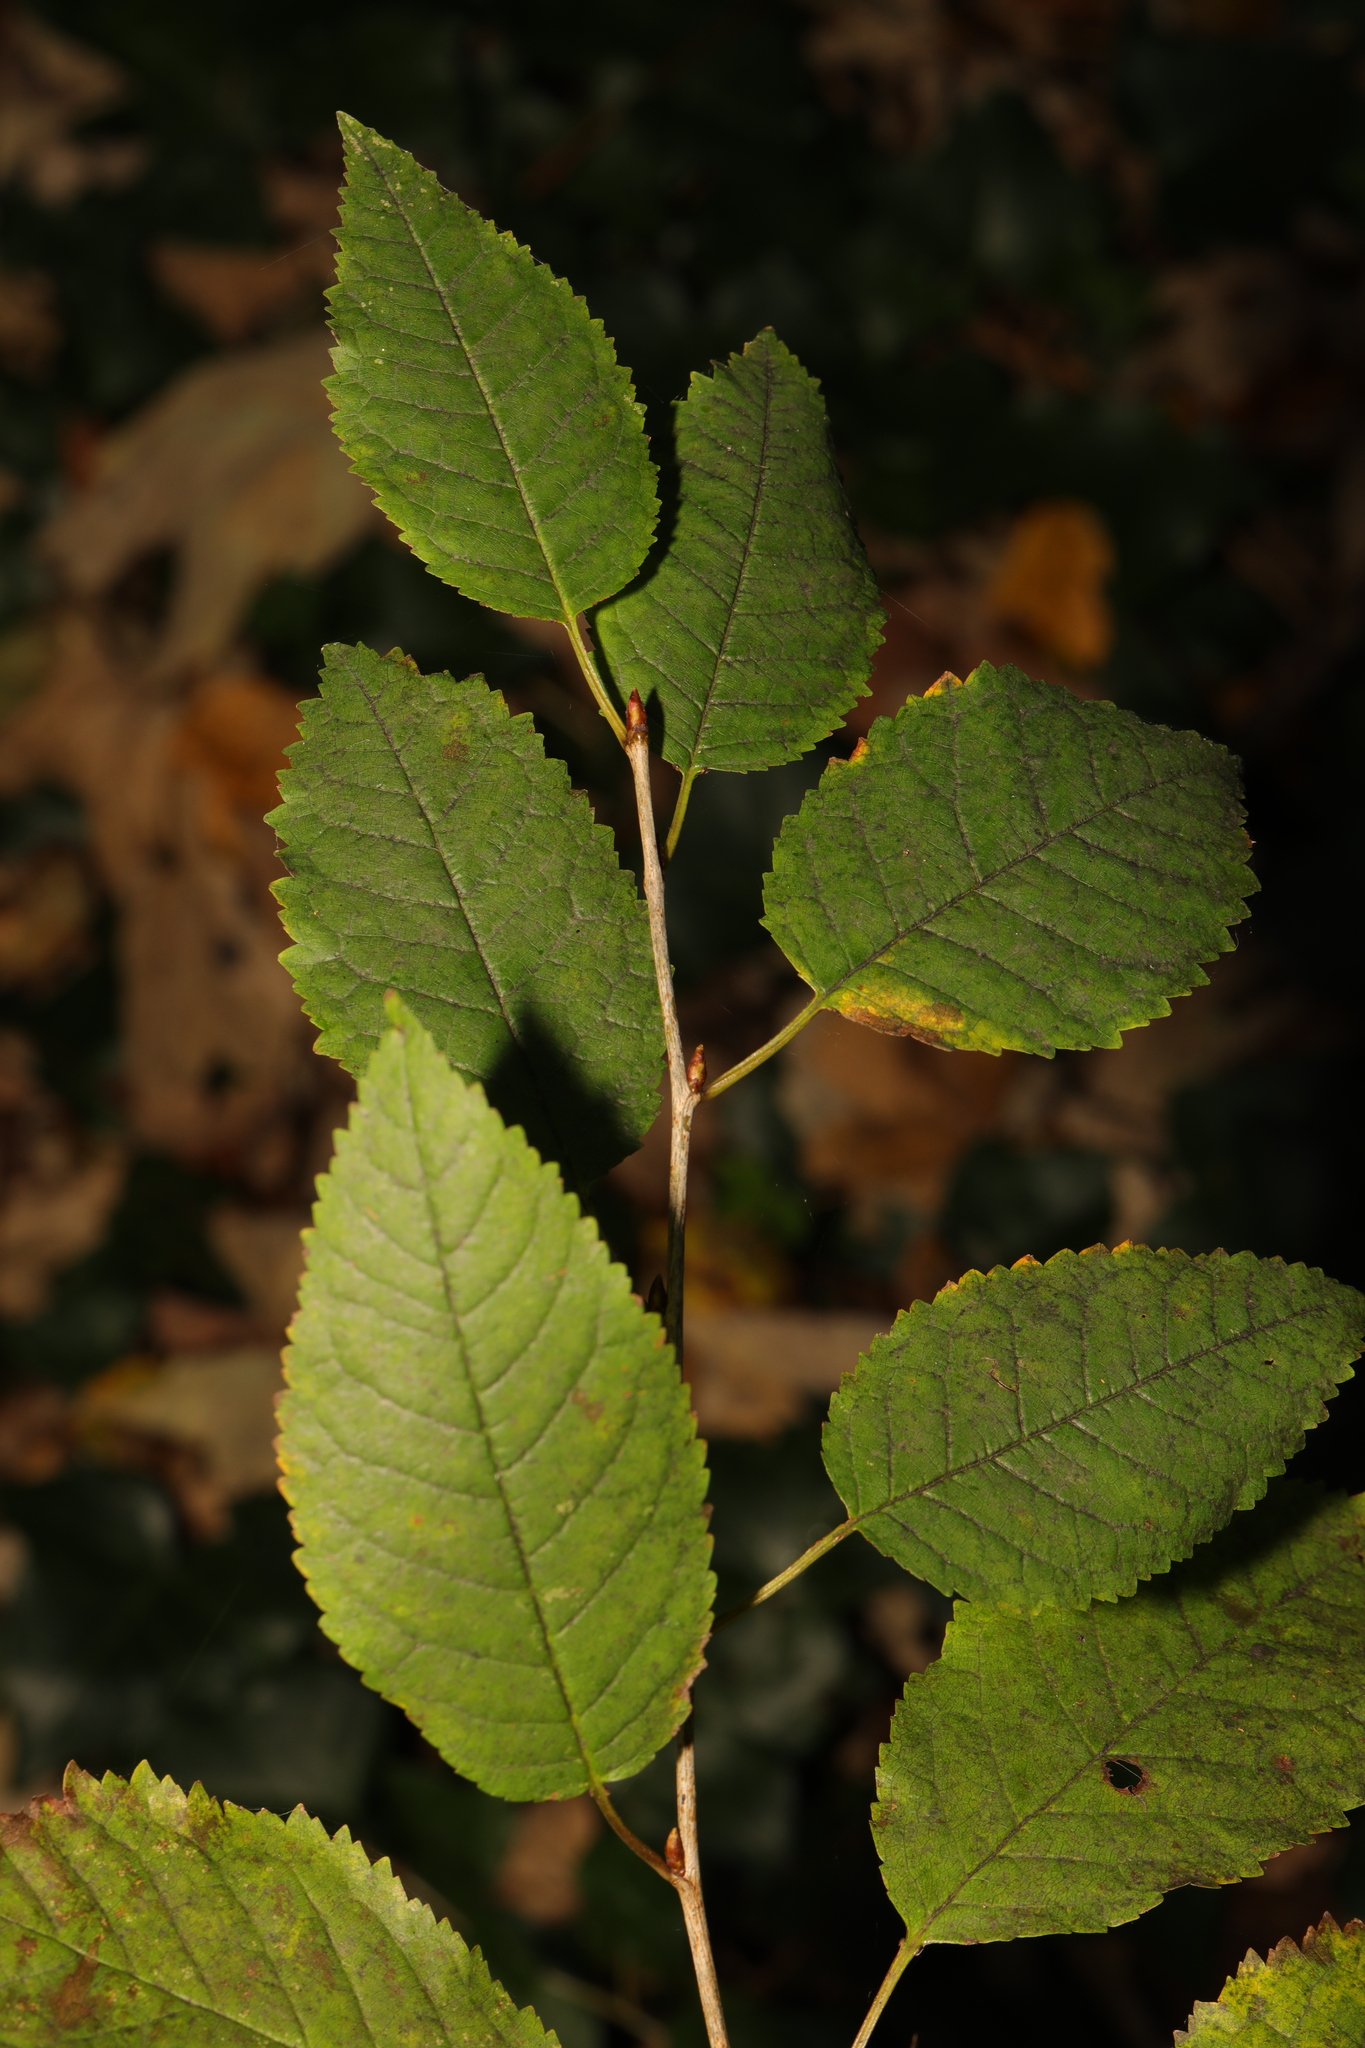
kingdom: Plantae
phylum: Tracheophyta
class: Magnoliopsida
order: Rosales
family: Rosaceae
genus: Prunus
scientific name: Prunus avium
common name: Sweet cherry
